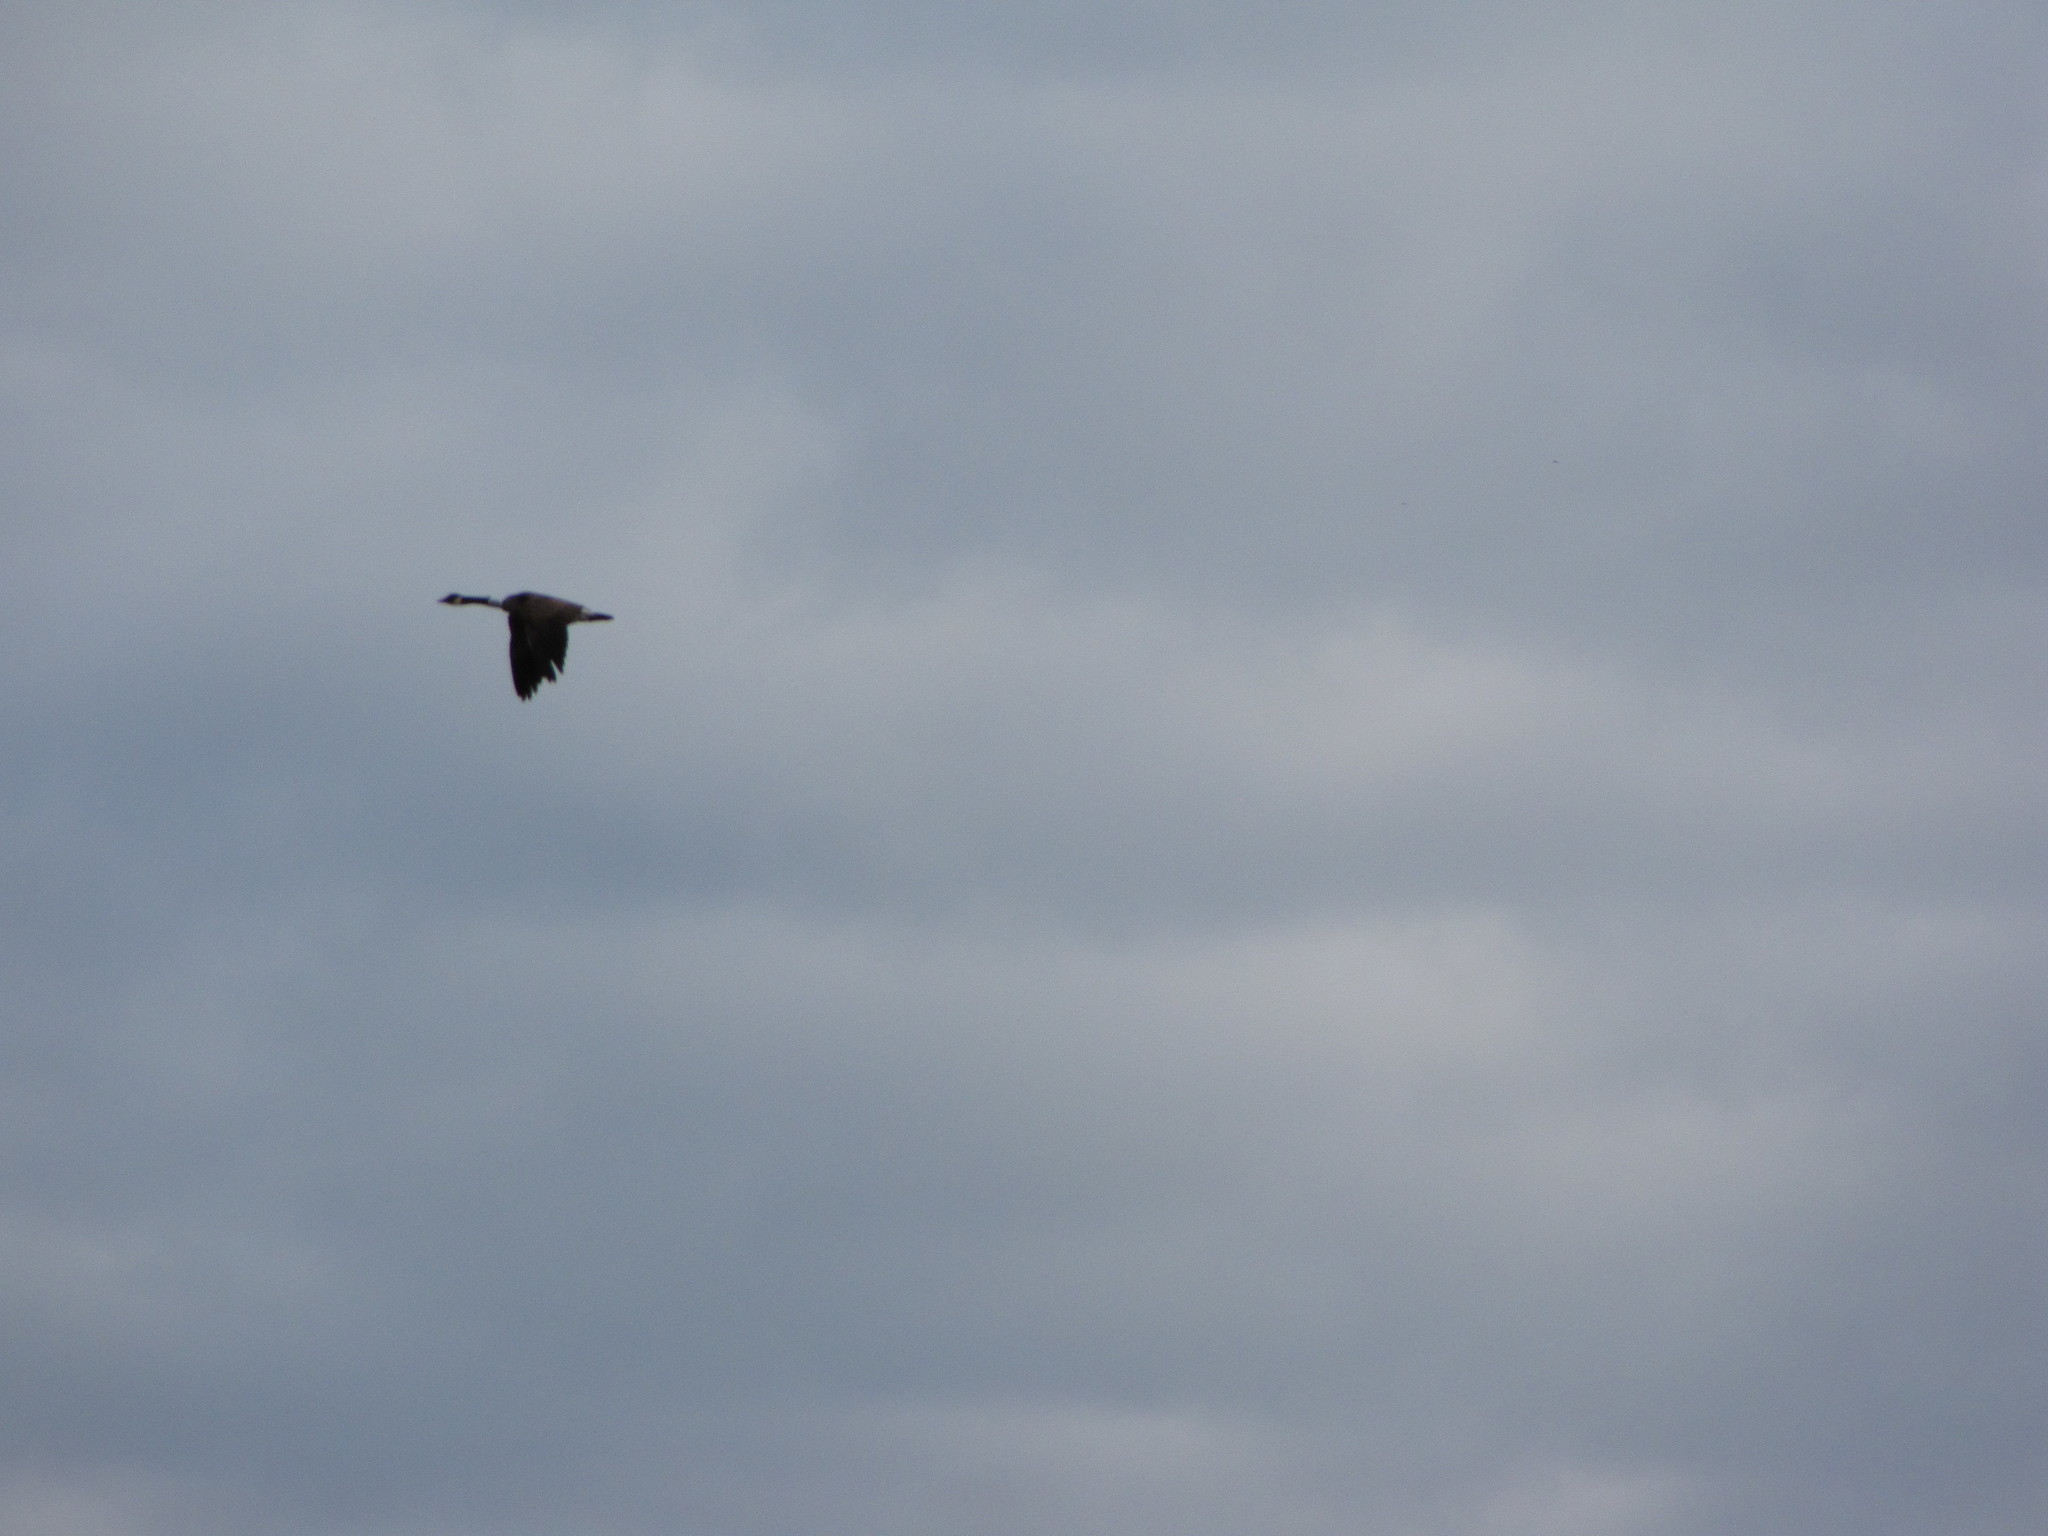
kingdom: Animalia
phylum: Chordata
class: Aves
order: Anseriformes
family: Anatidae
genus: Branta
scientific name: Branta canadensis
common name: Canada goose
